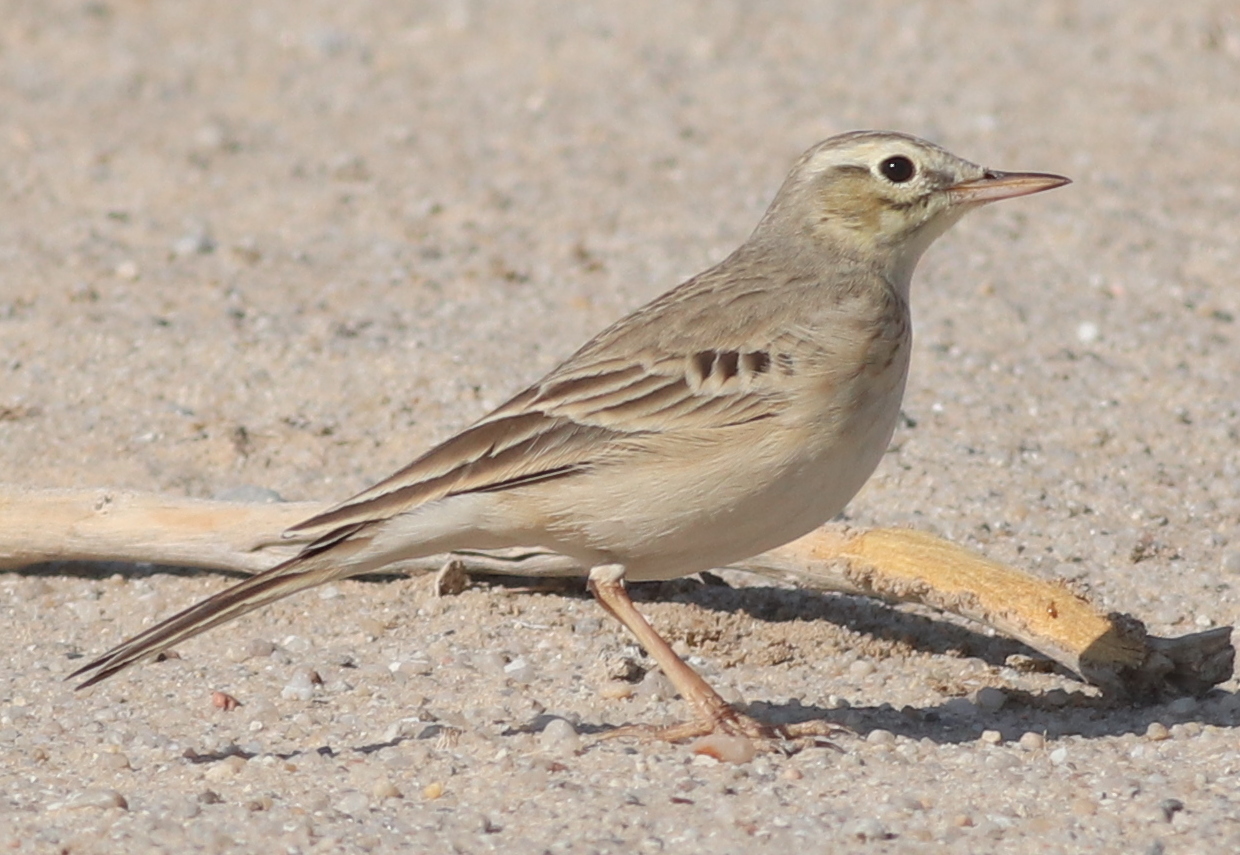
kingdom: Animalia
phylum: Chordata
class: Aves
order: Passeriformes
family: Motacillidae
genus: Anthus
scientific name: Anthus campestris
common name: Tawny pipit
